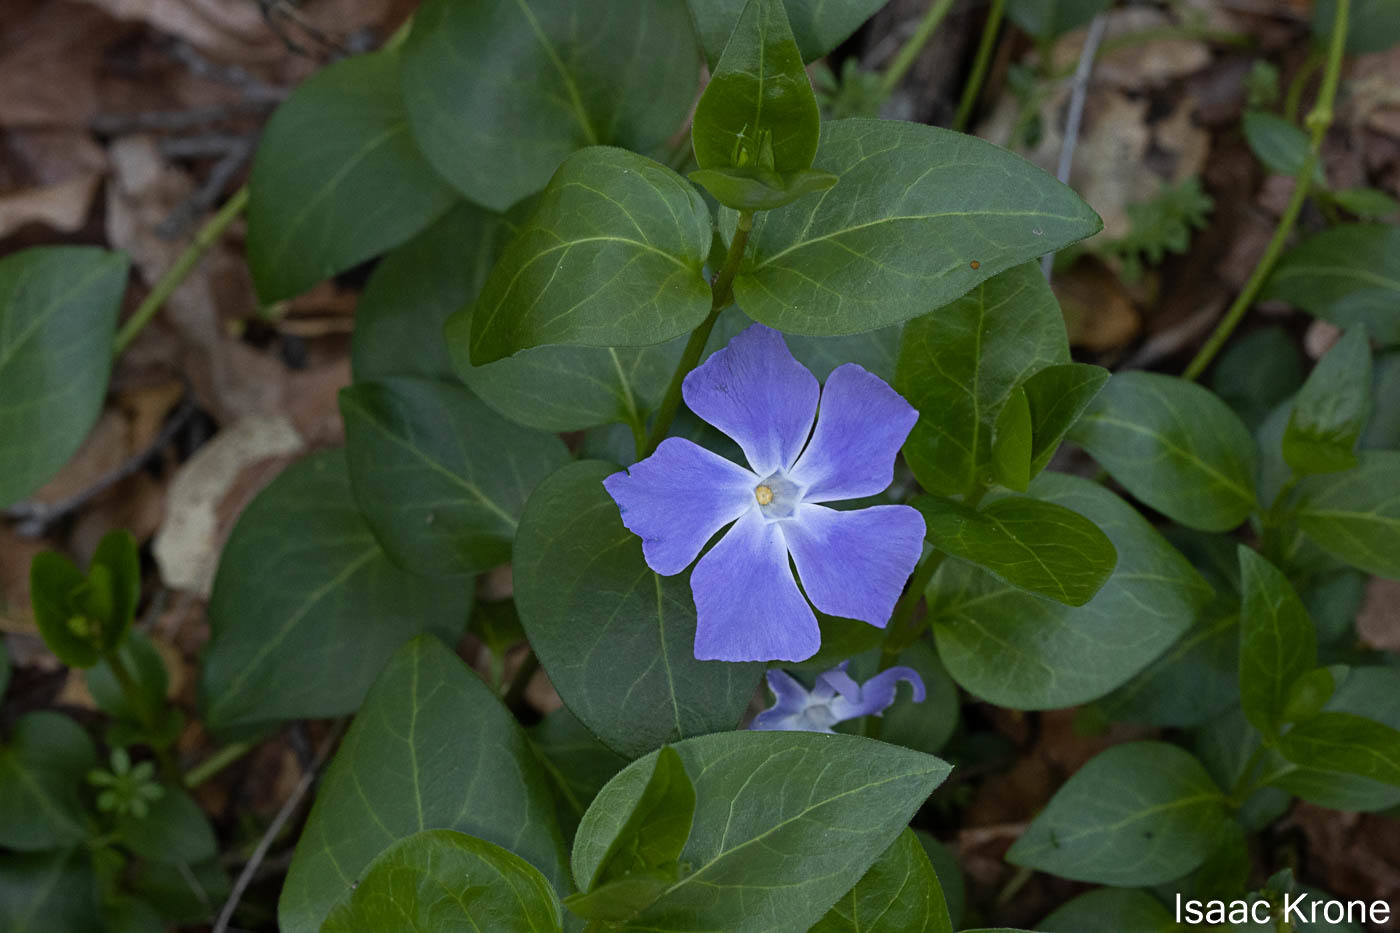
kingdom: Plantae
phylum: Tracheophyta
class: Magnoliopsida
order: Gentianales
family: Apocynaceae
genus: Vinca
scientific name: Vinca major
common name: Greater periwinkle
